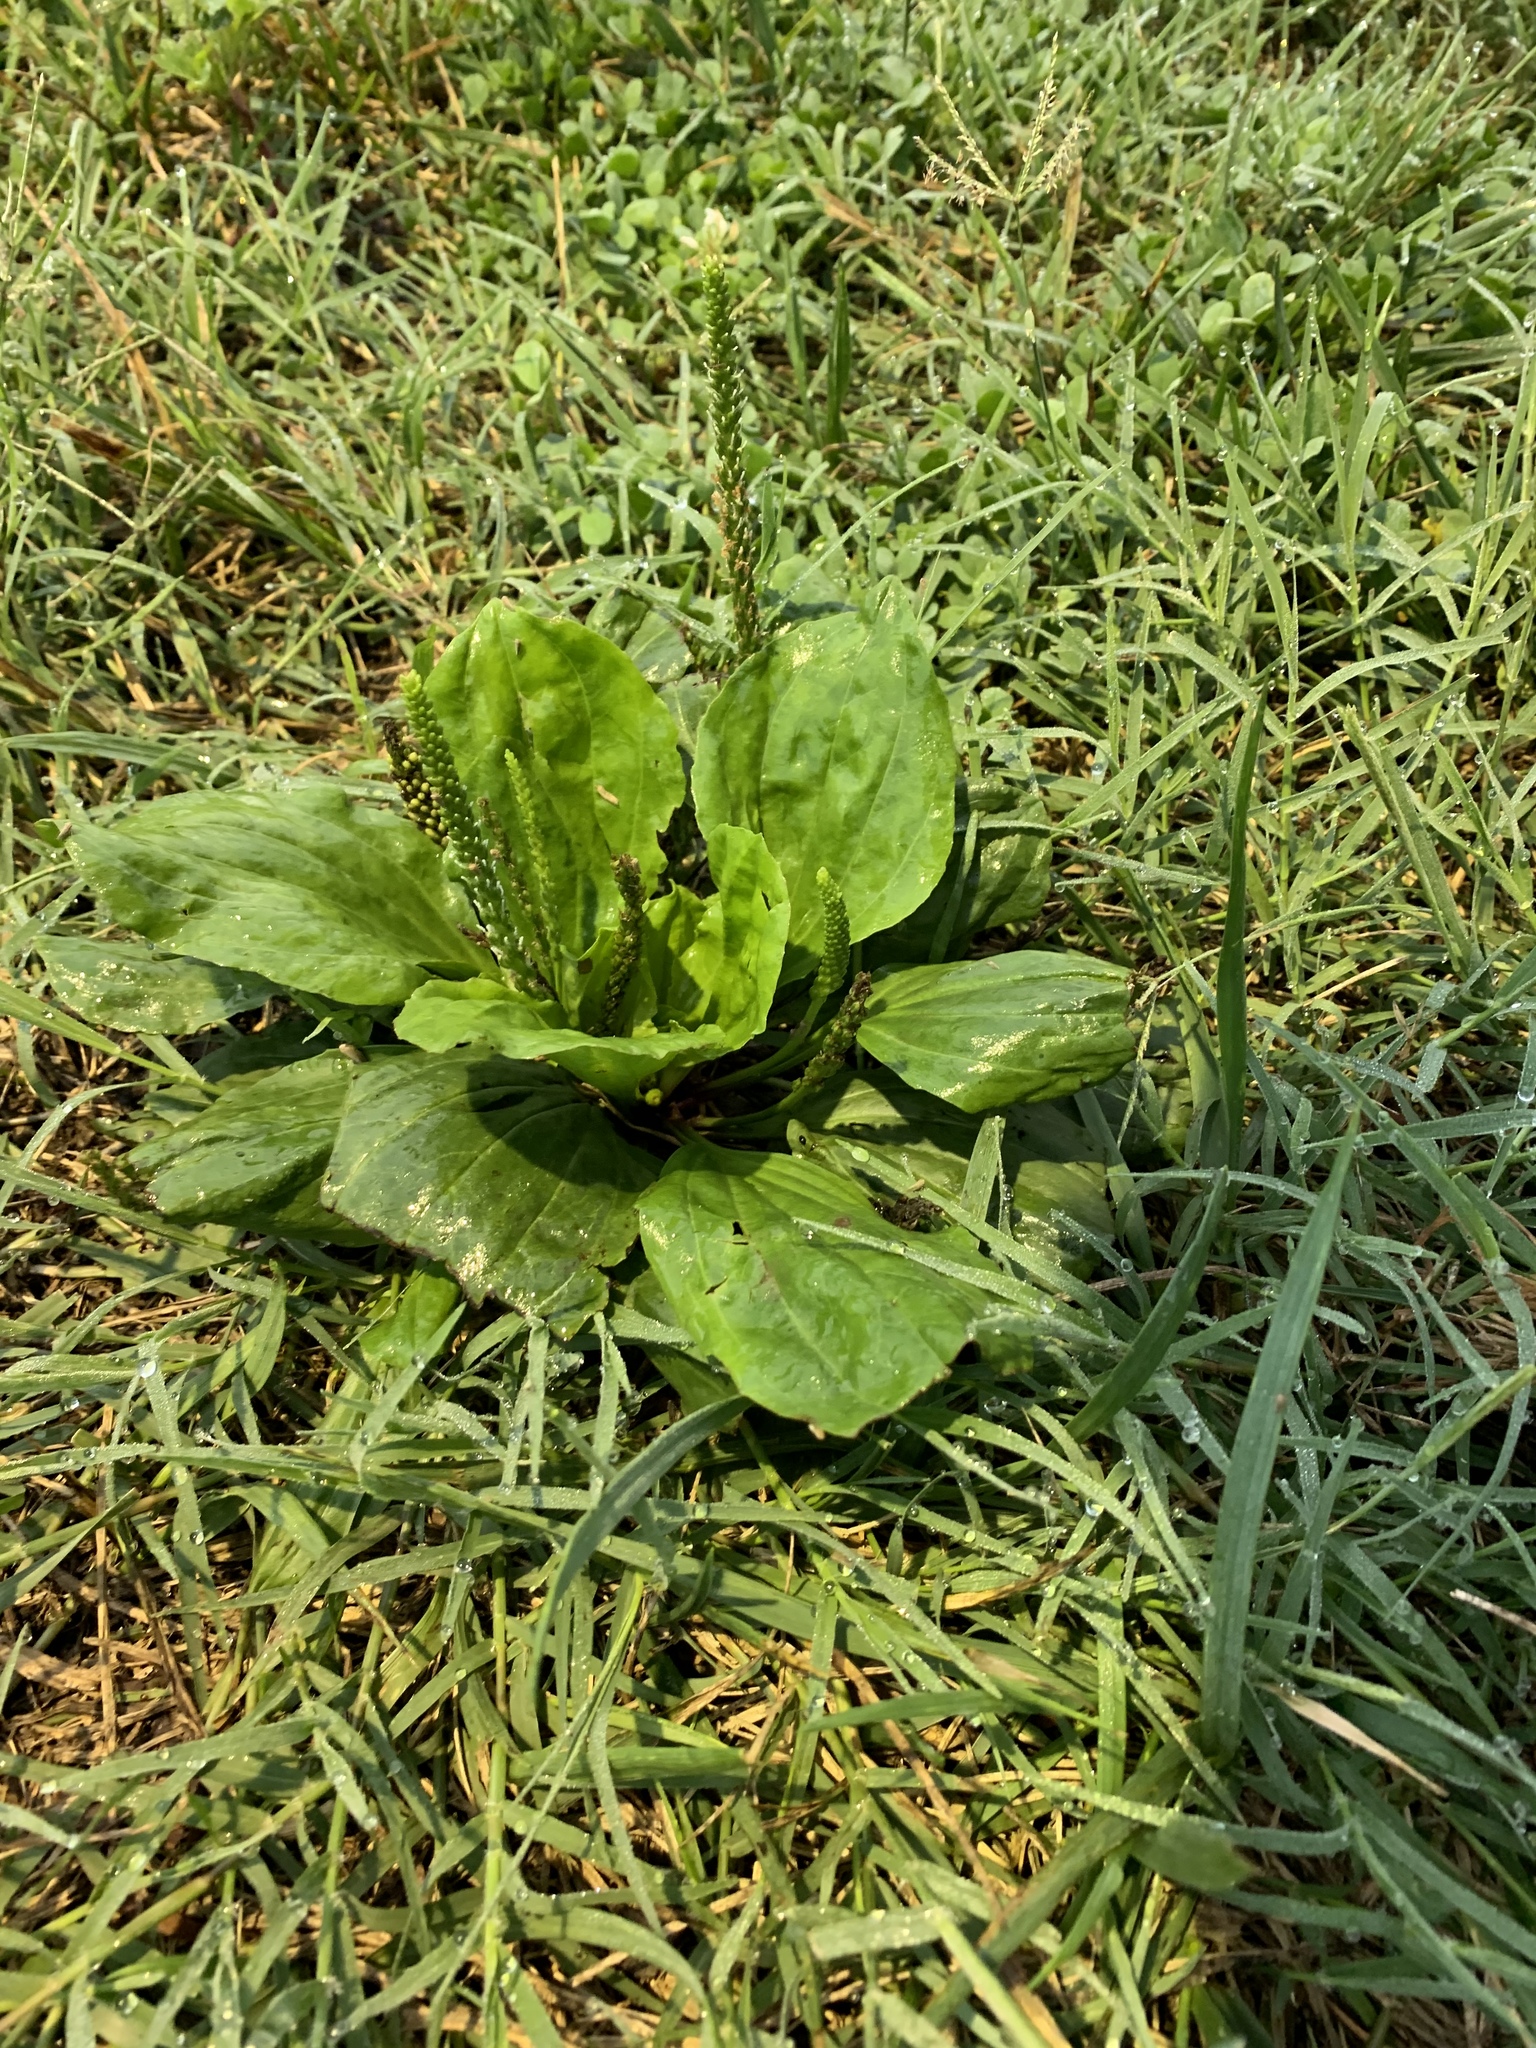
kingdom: Plantae
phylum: Tracheophyta
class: Magnoliopsida
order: Lamiales
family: Plantaginaceae
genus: Plantago
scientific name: Plantago major
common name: Common plantain
